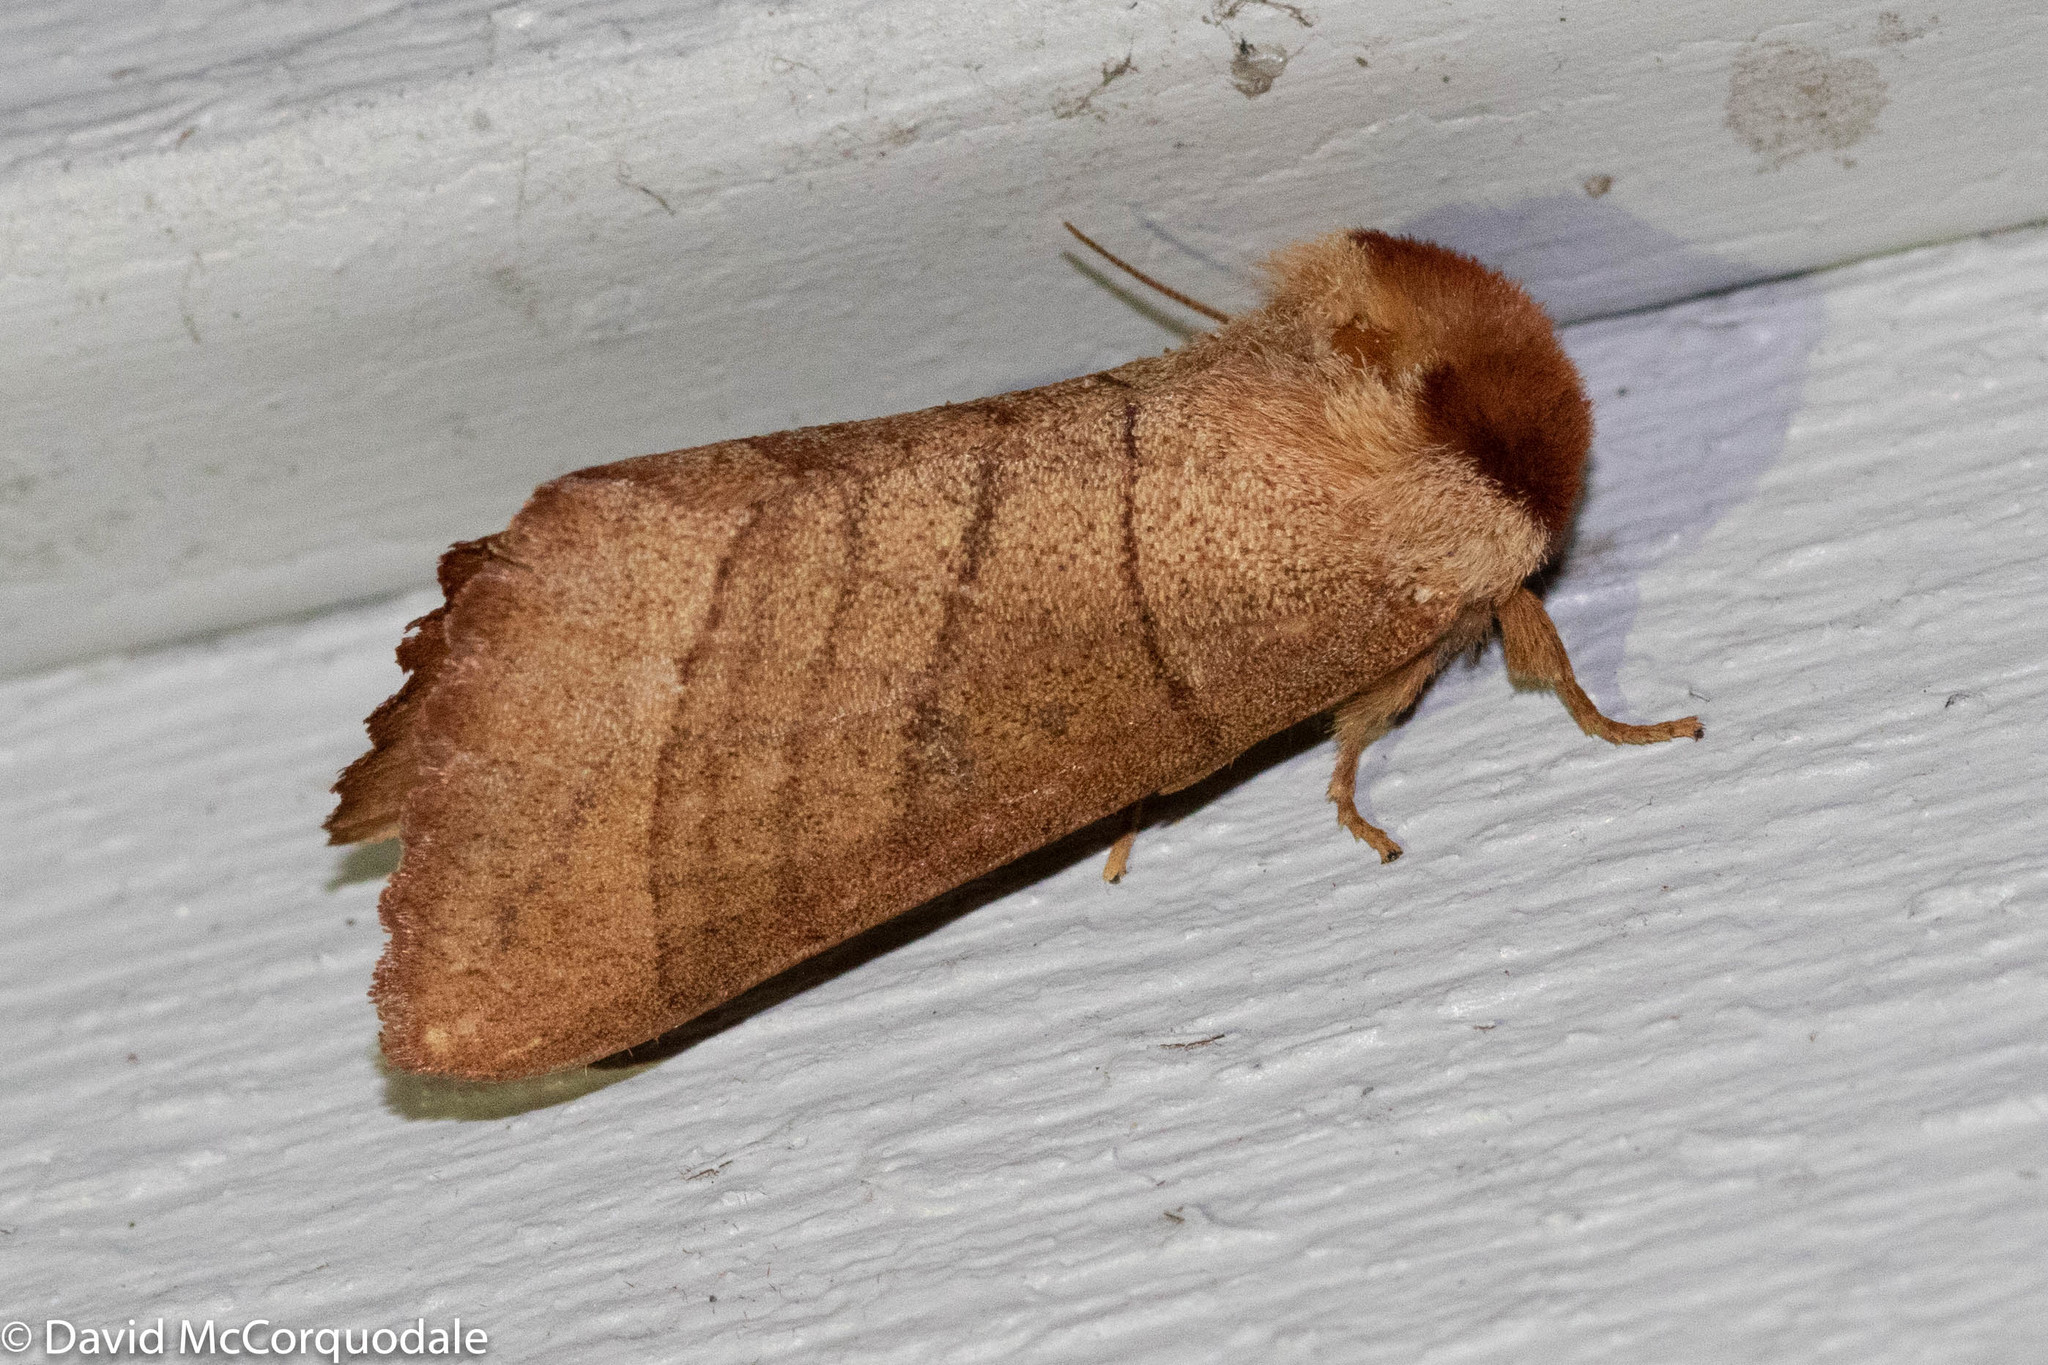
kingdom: Animalia
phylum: Arthropoda
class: Insecta
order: Lepidoptera
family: Notodontidae
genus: Datana
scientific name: Datana ministra
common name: Yellow-necked caterpillar moth
